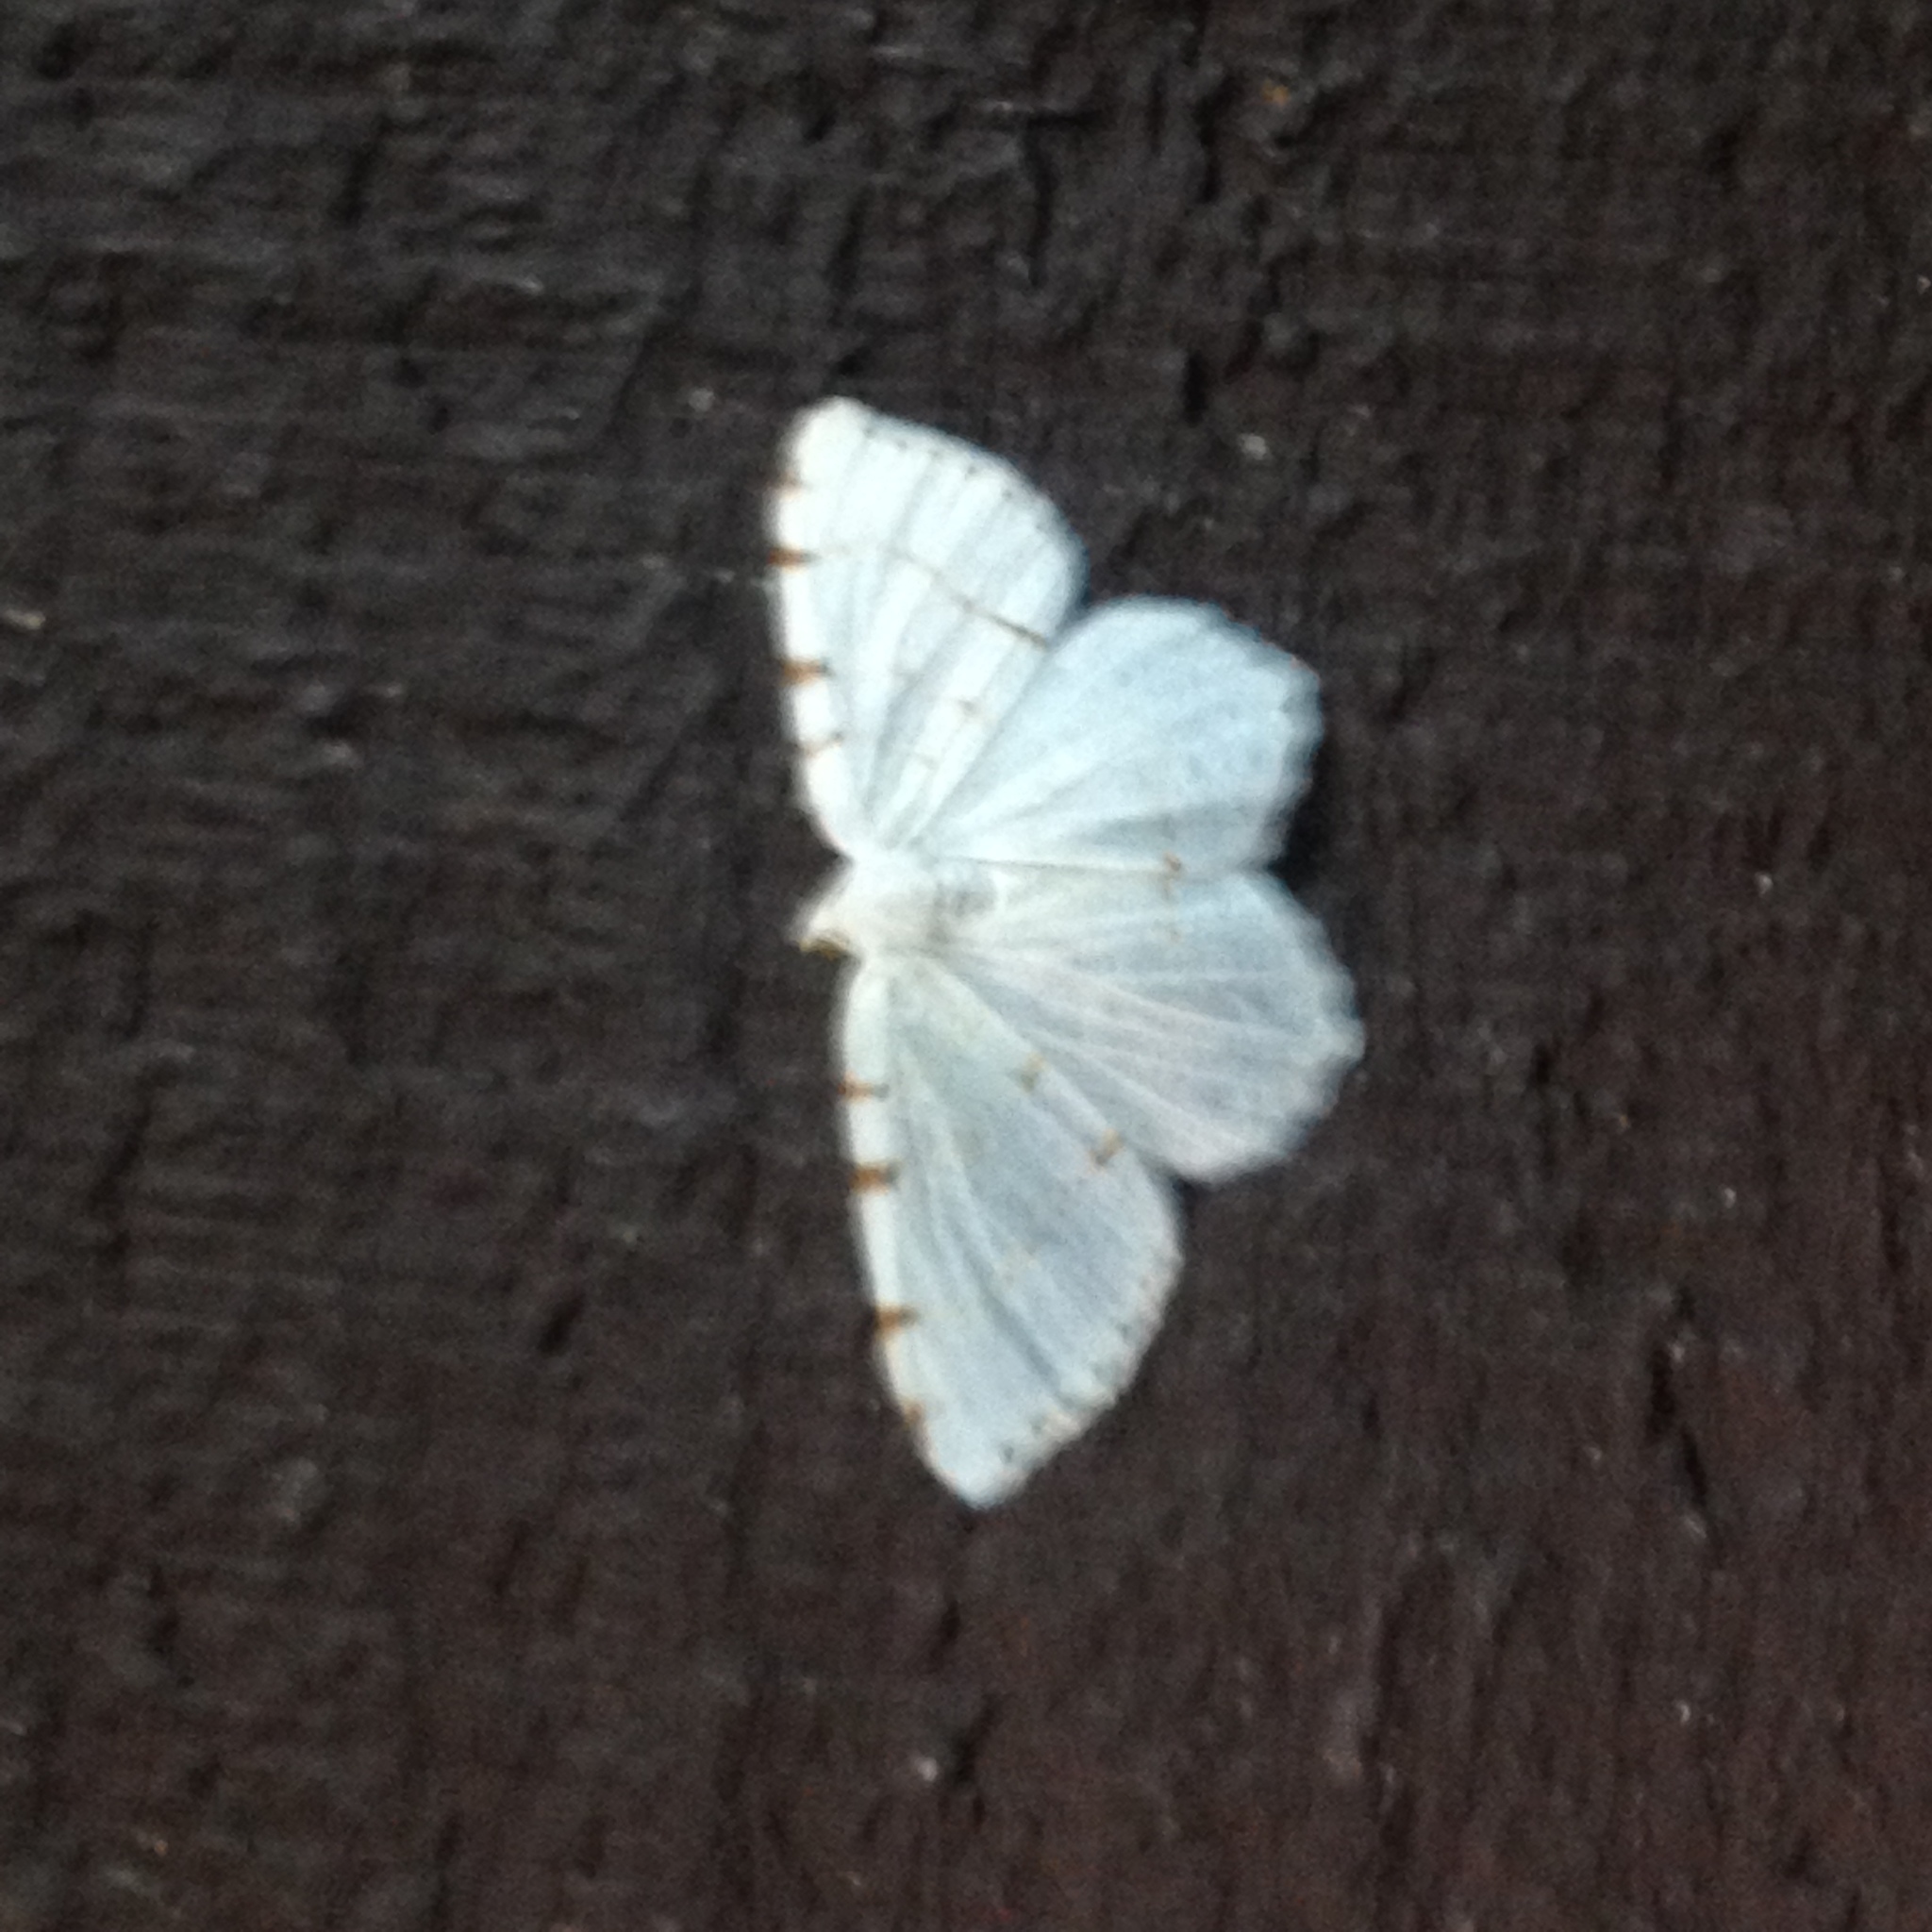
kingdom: Animalia
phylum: Arthropoda
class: Insecta
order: Lepidoptera
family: Geometridae
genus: Macaria
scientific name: Macaria pustularia
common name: Lesser maple spanworm moth
